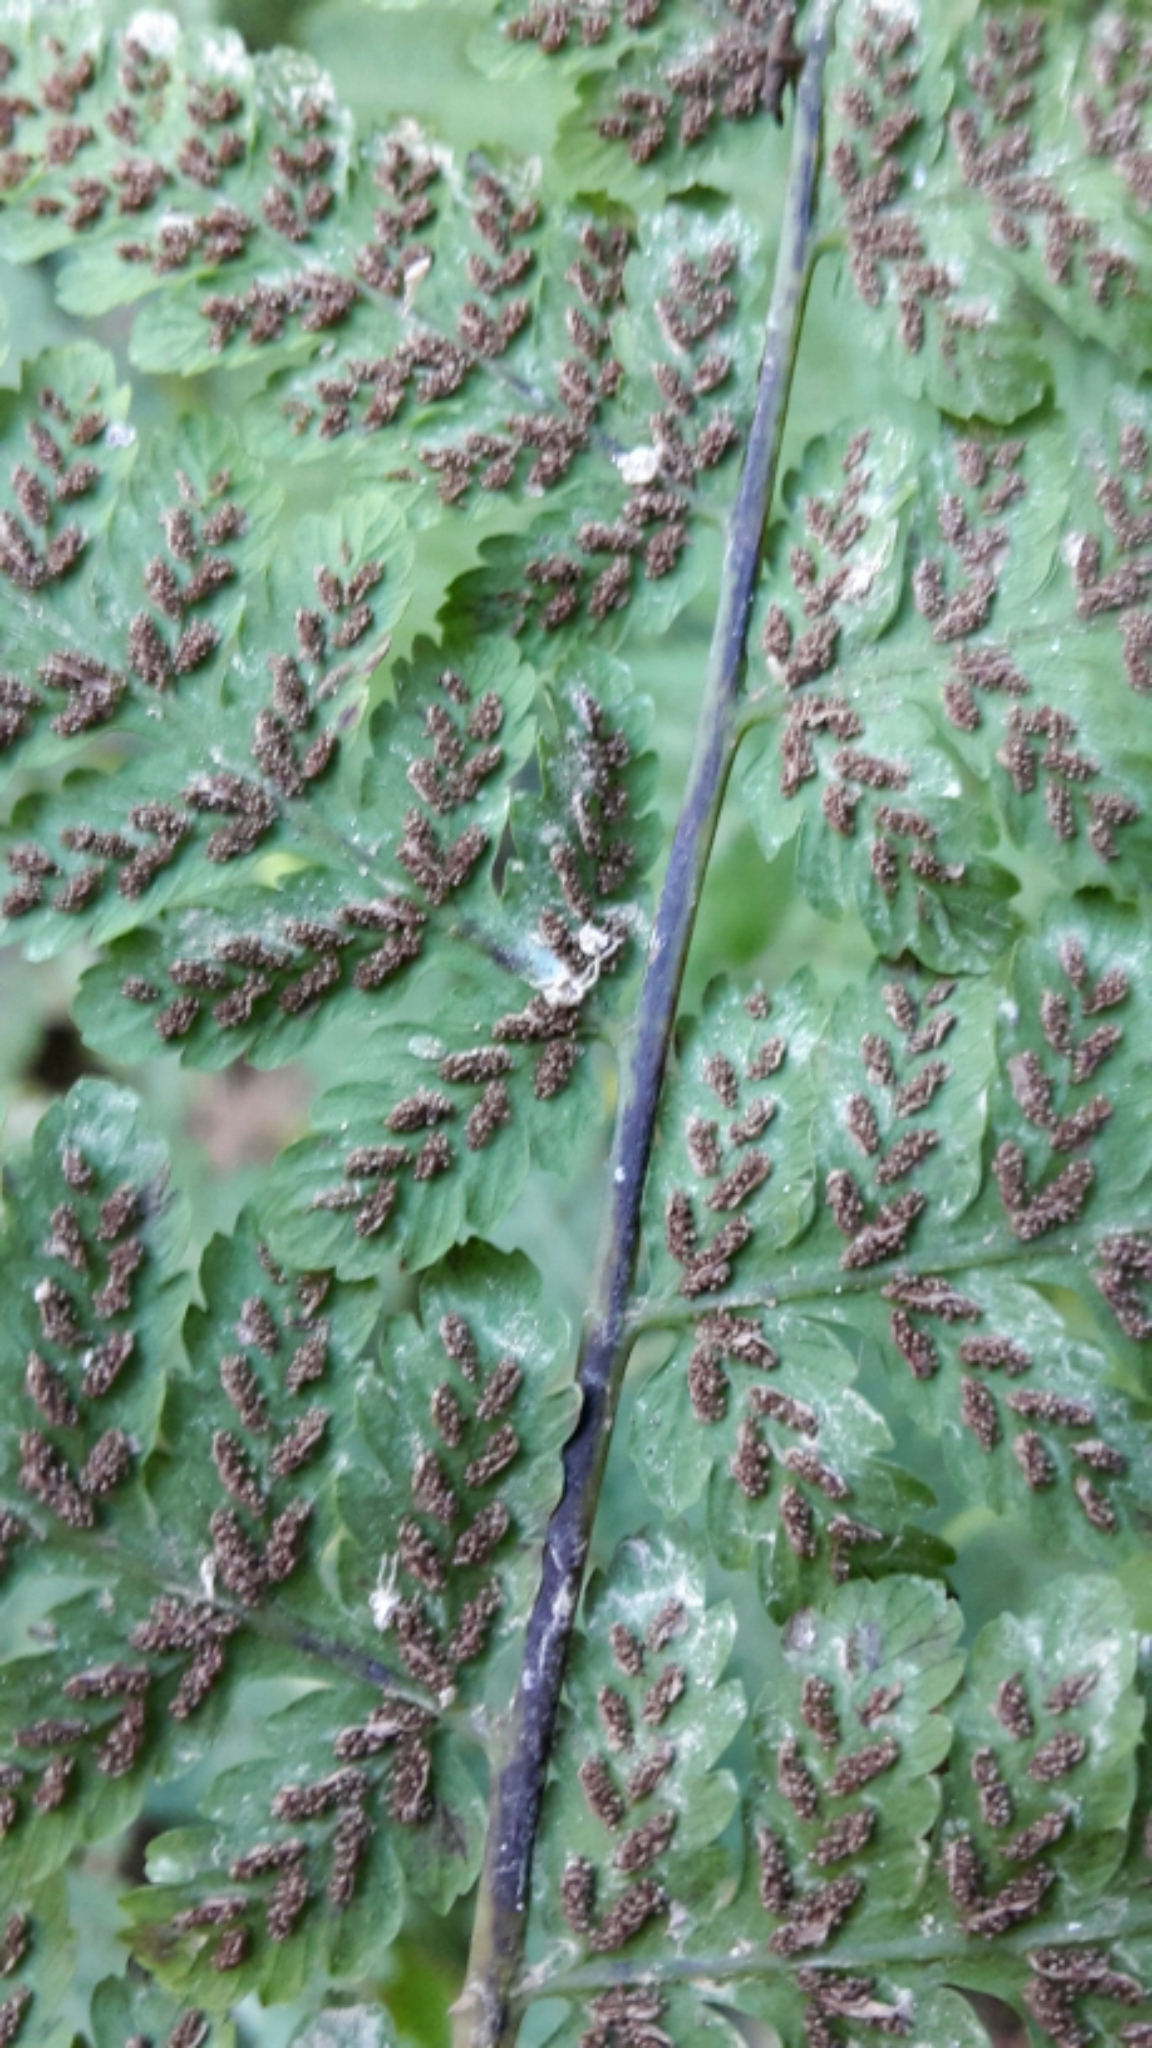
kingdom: Plantae
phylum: Tracheophyta
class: Polypodiopsida
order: Polypodiales
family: Athyriaceae
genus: Diplazium
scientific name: Diplazium australe
